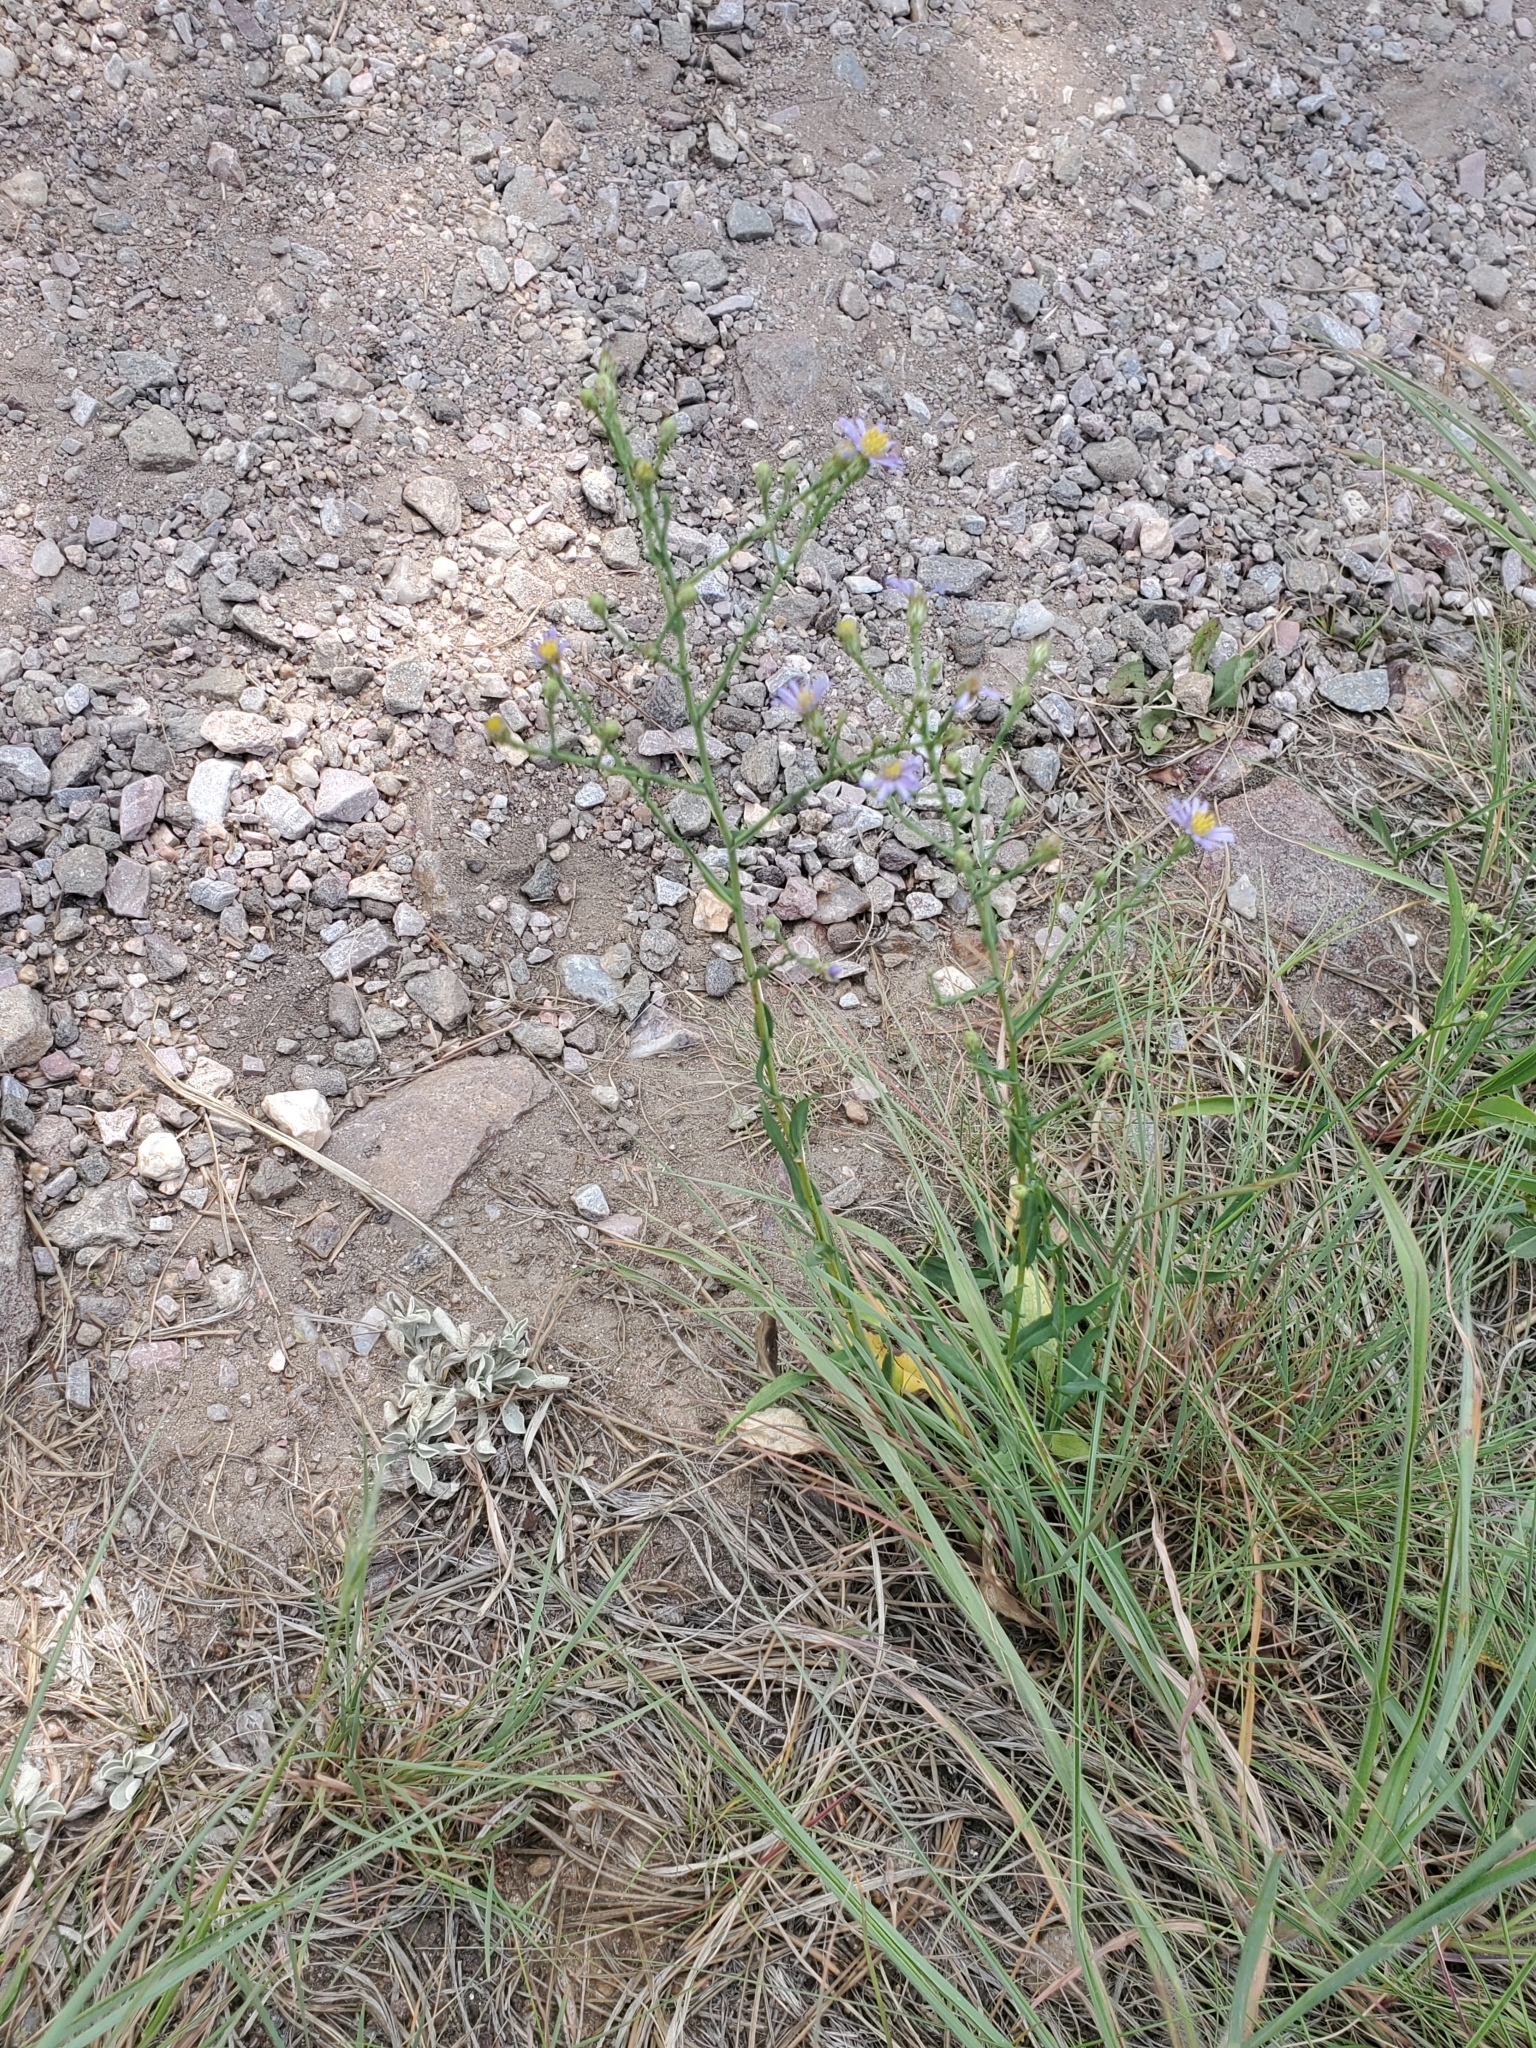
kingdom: Plantae
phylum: Tracheophyta
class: Magnoliopsida
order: Asterales
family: Asteraceae
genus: Symphyotrichum
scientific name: Symphyotrichum laeve
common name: Glaucous aster
